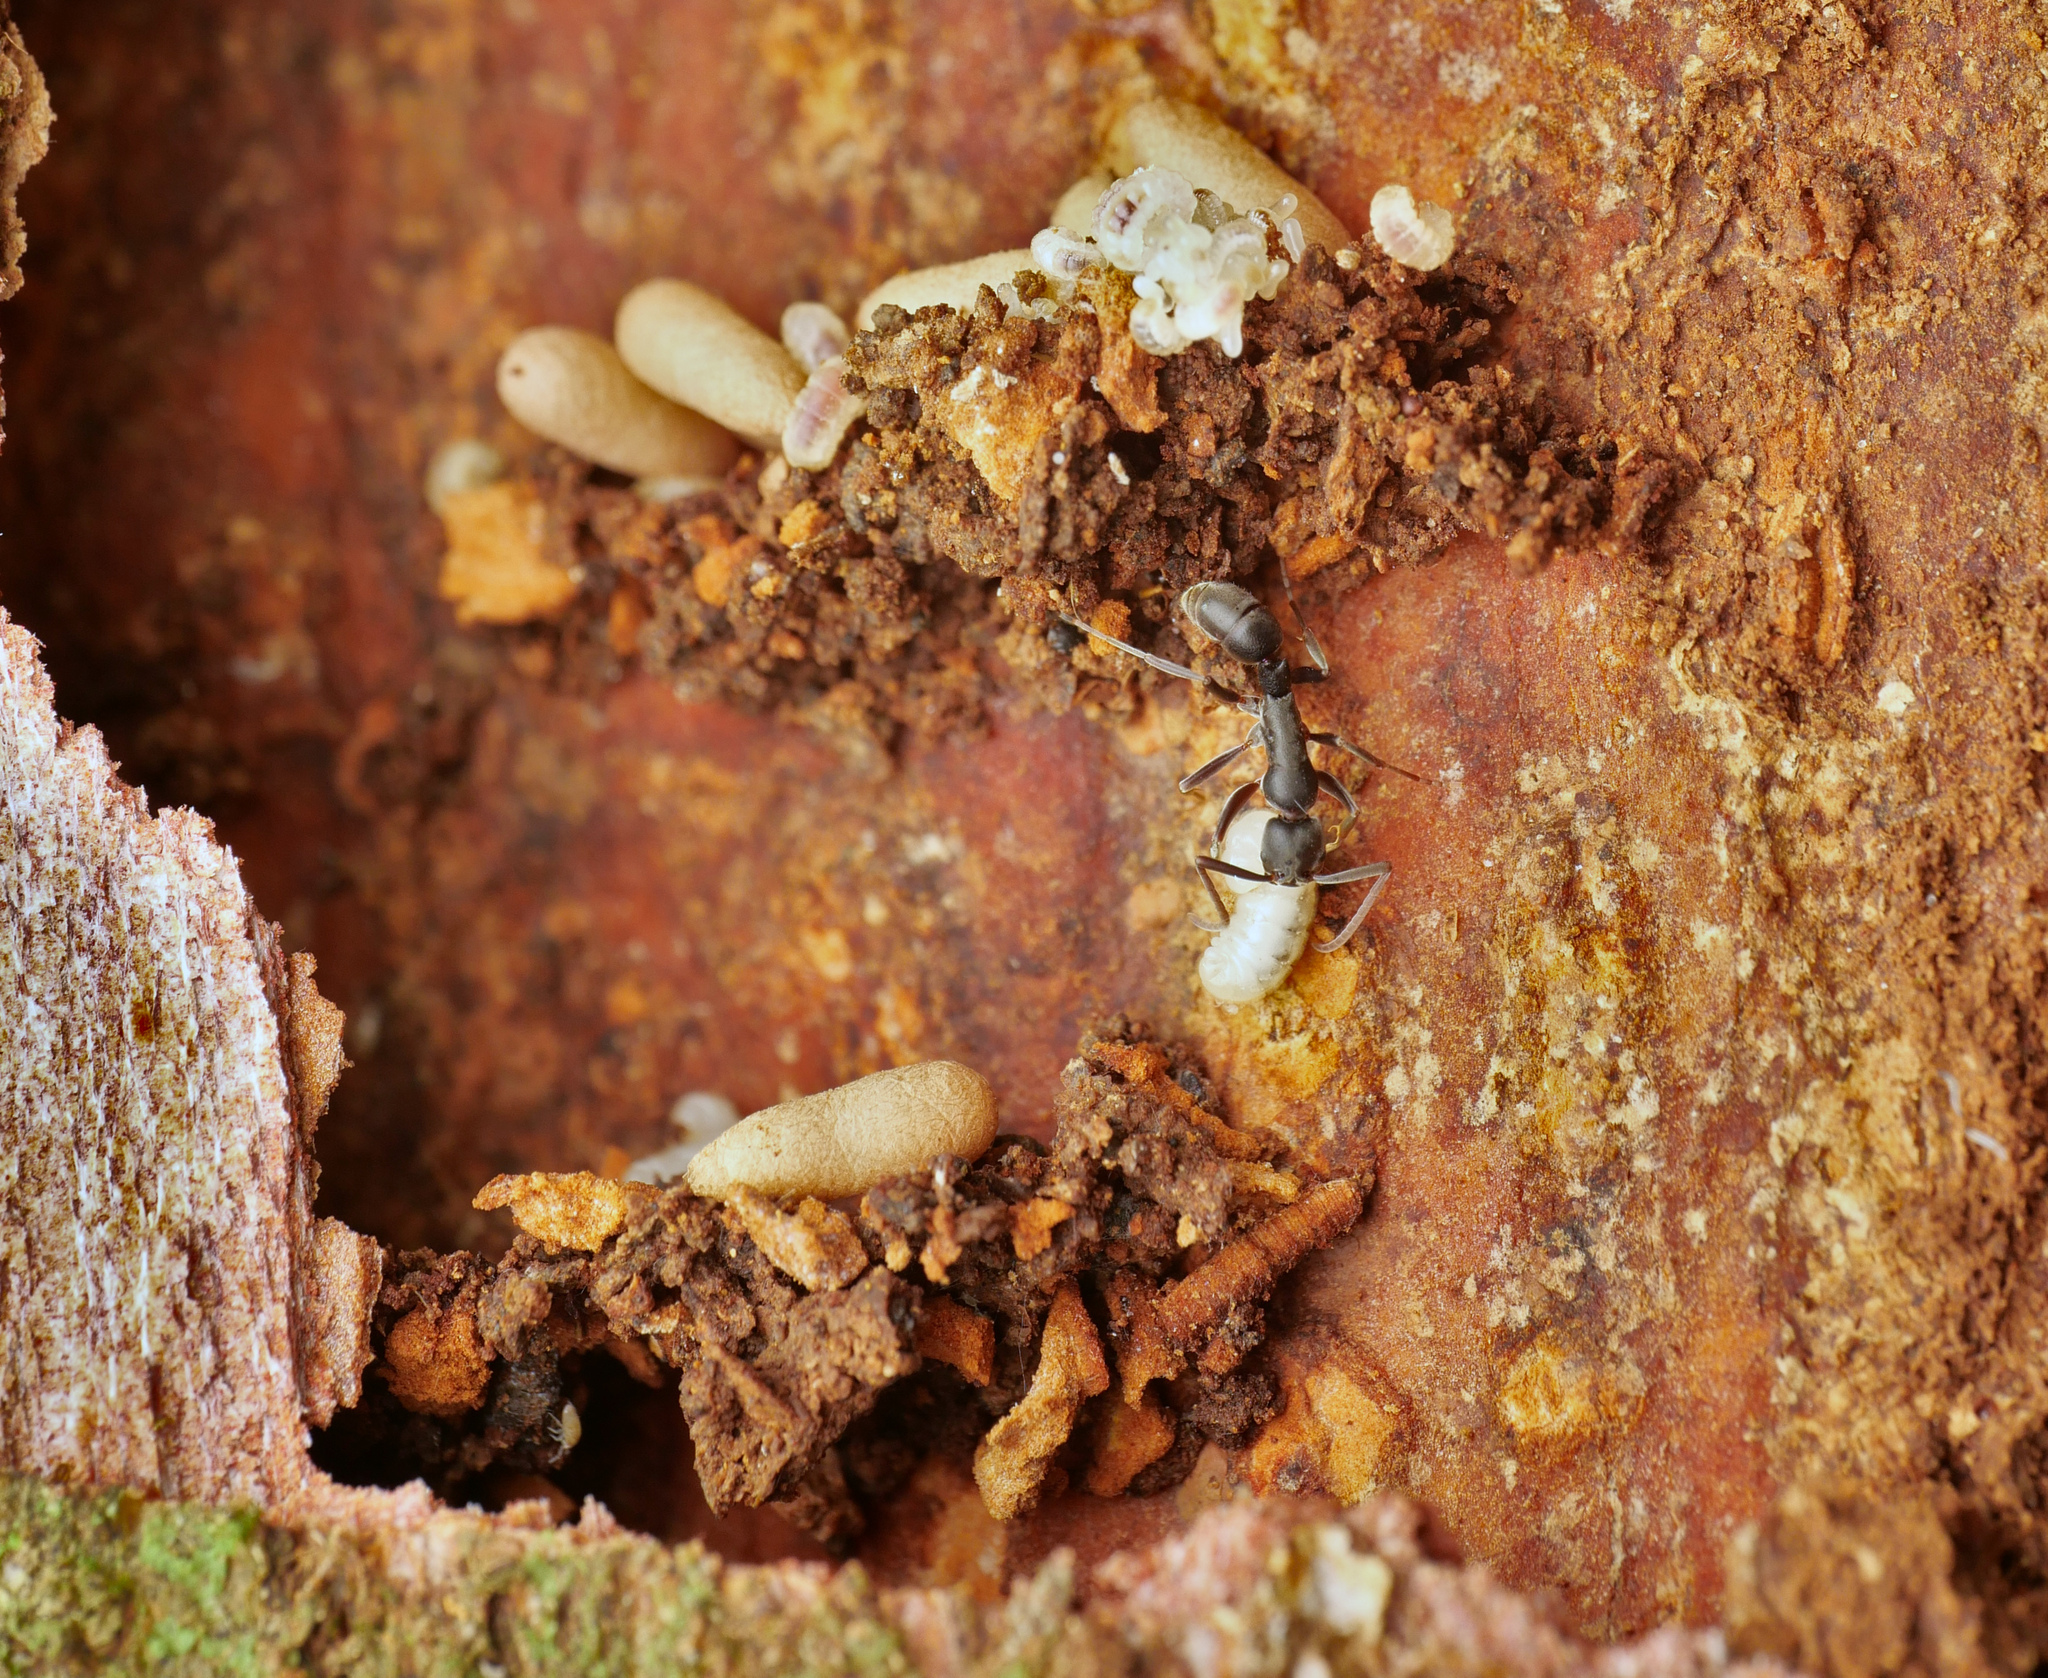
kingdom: Animalia
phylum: Arthropoda
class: Insecta
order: Hymenoptera
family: Formicidae
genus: Platythyrea
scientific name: Platythyrea quadridenta
